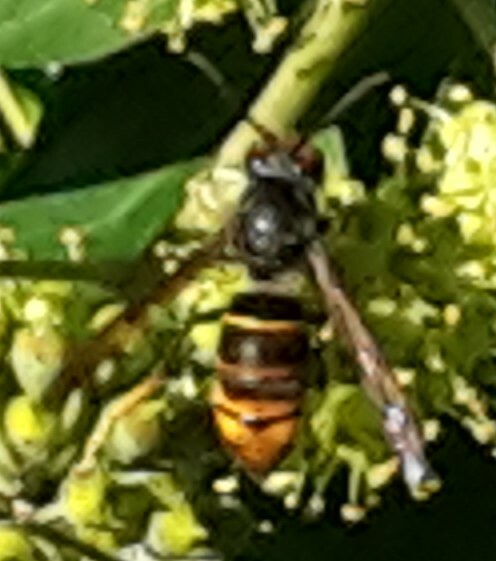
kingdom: Animalia
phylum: Arthropoda
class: Insecta
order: Hymenoptera
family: Vespidae
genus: Vespa
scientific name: Vespa velutina
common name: Asian hornet
